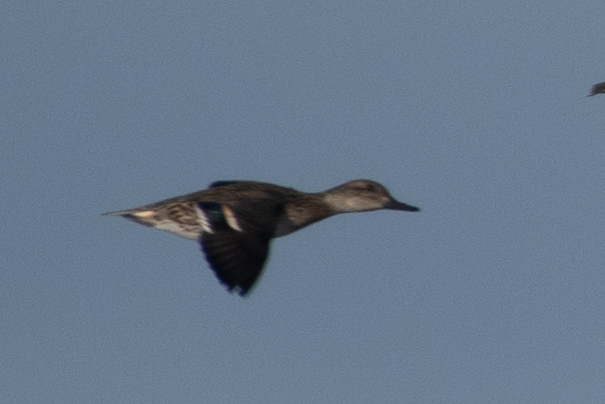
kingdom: Animalia
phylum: Chordata
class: Aves
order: Anseriformes
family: Anatidae
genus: Anas
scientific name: Anas crecca
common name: Eurasian teal
